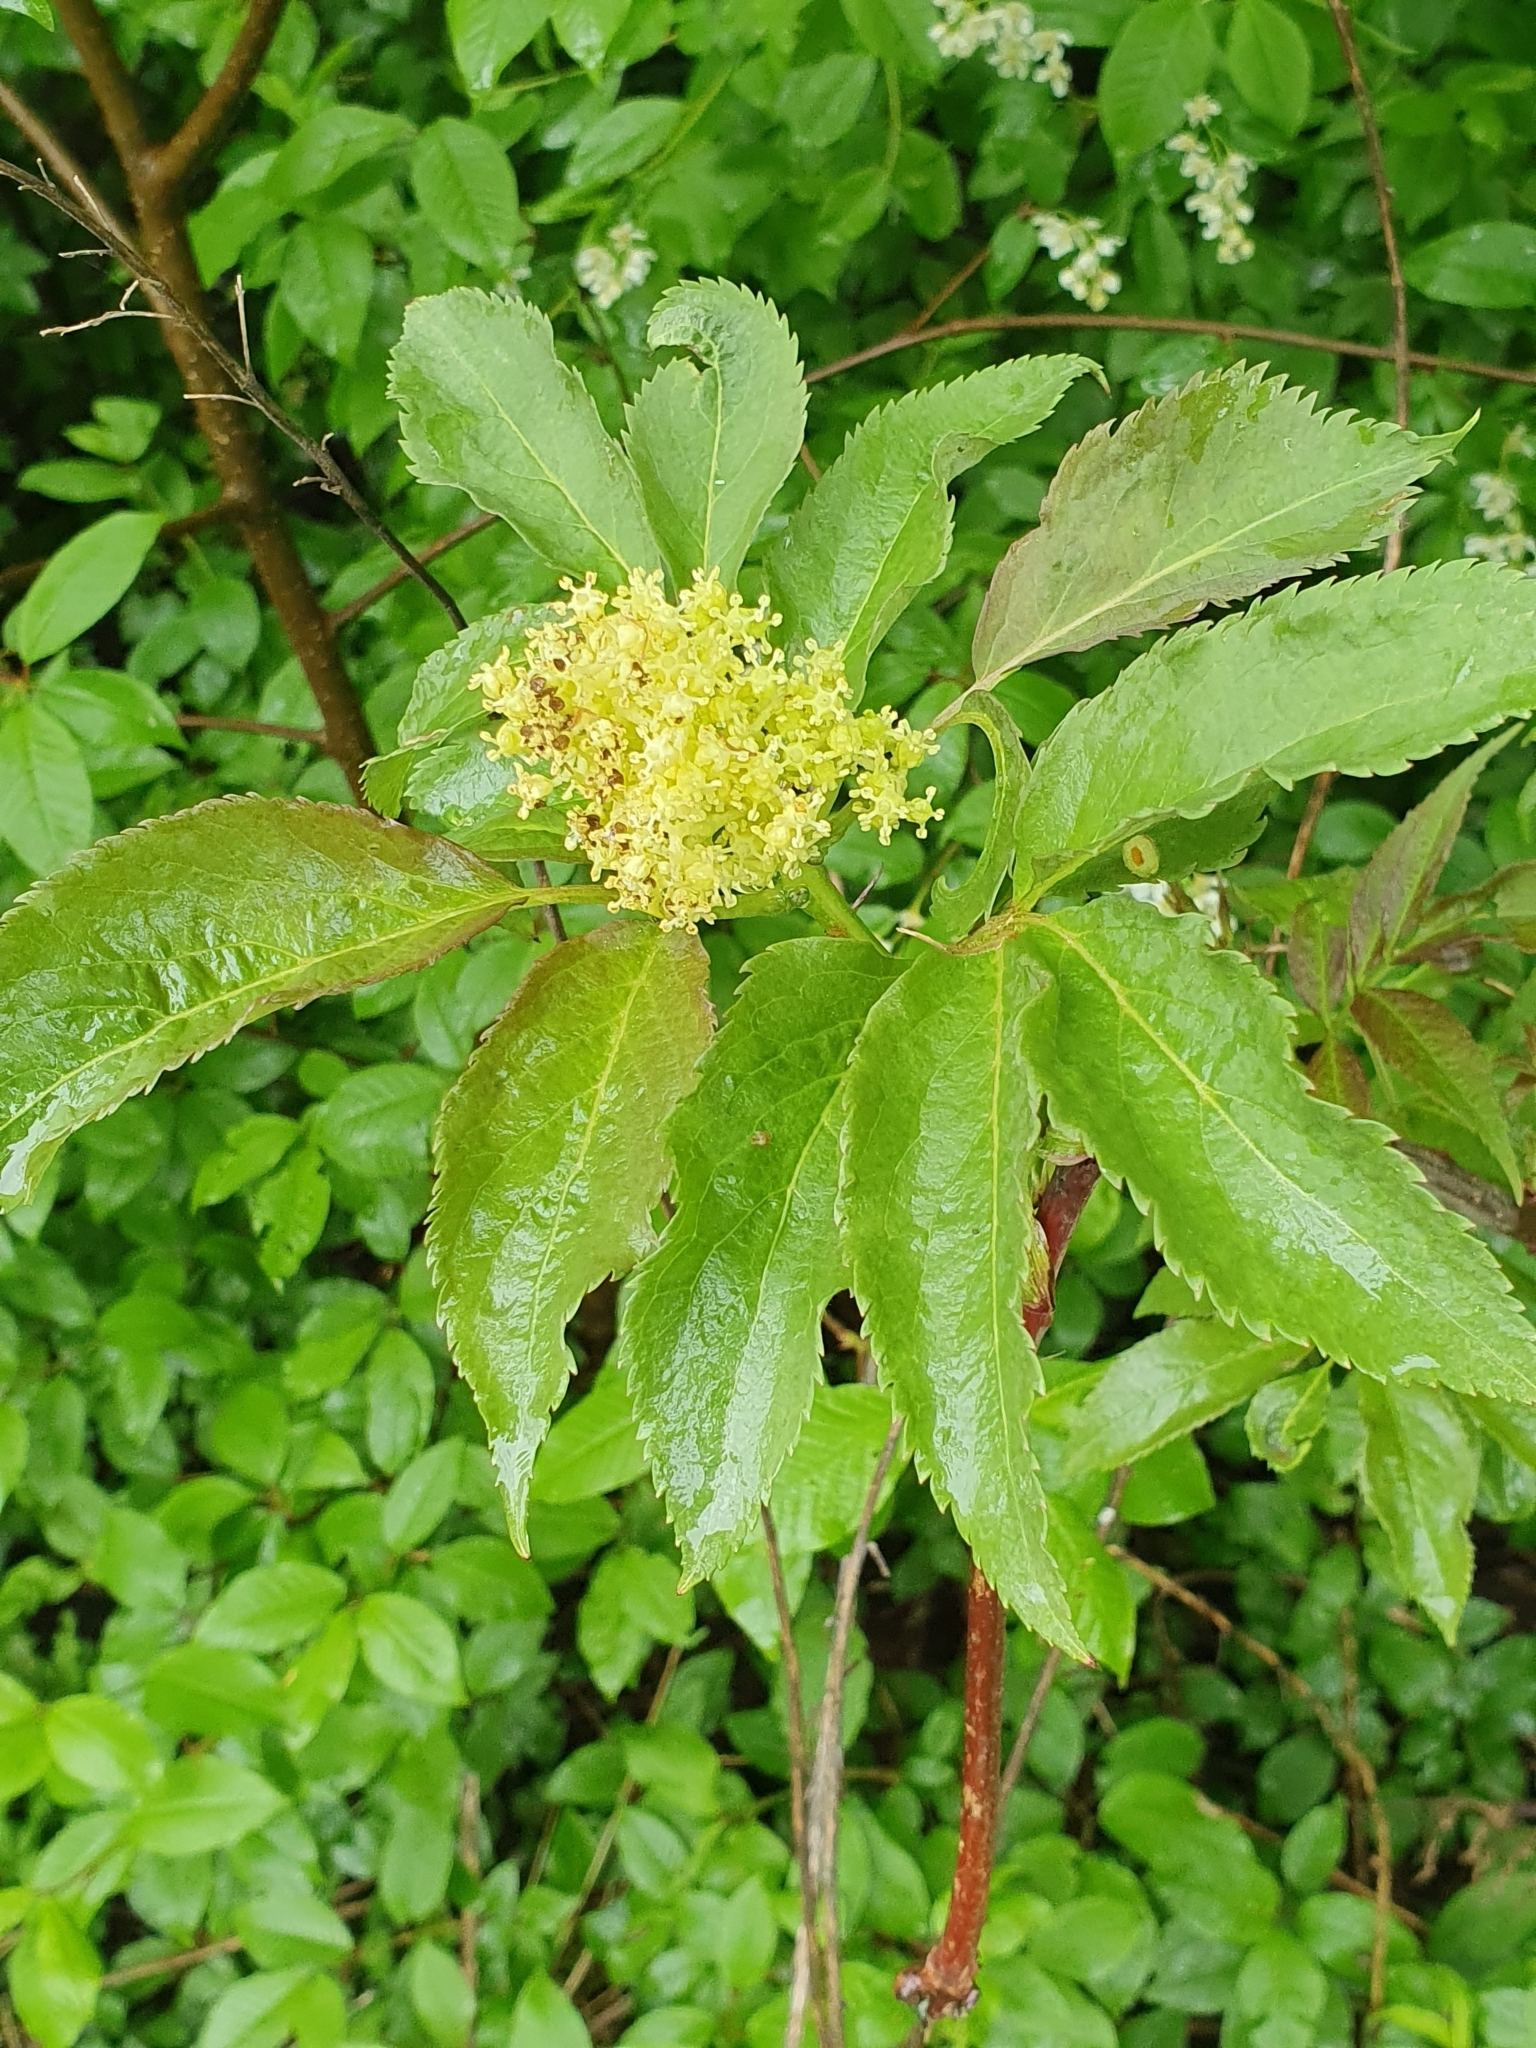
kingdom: Plantae
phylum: Tracheophyta
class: Magnoliopsida
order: Dipsacales
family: Viburnaceae
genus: Sambucus
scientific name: Sambucus racemosa
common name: Red-berried elder
